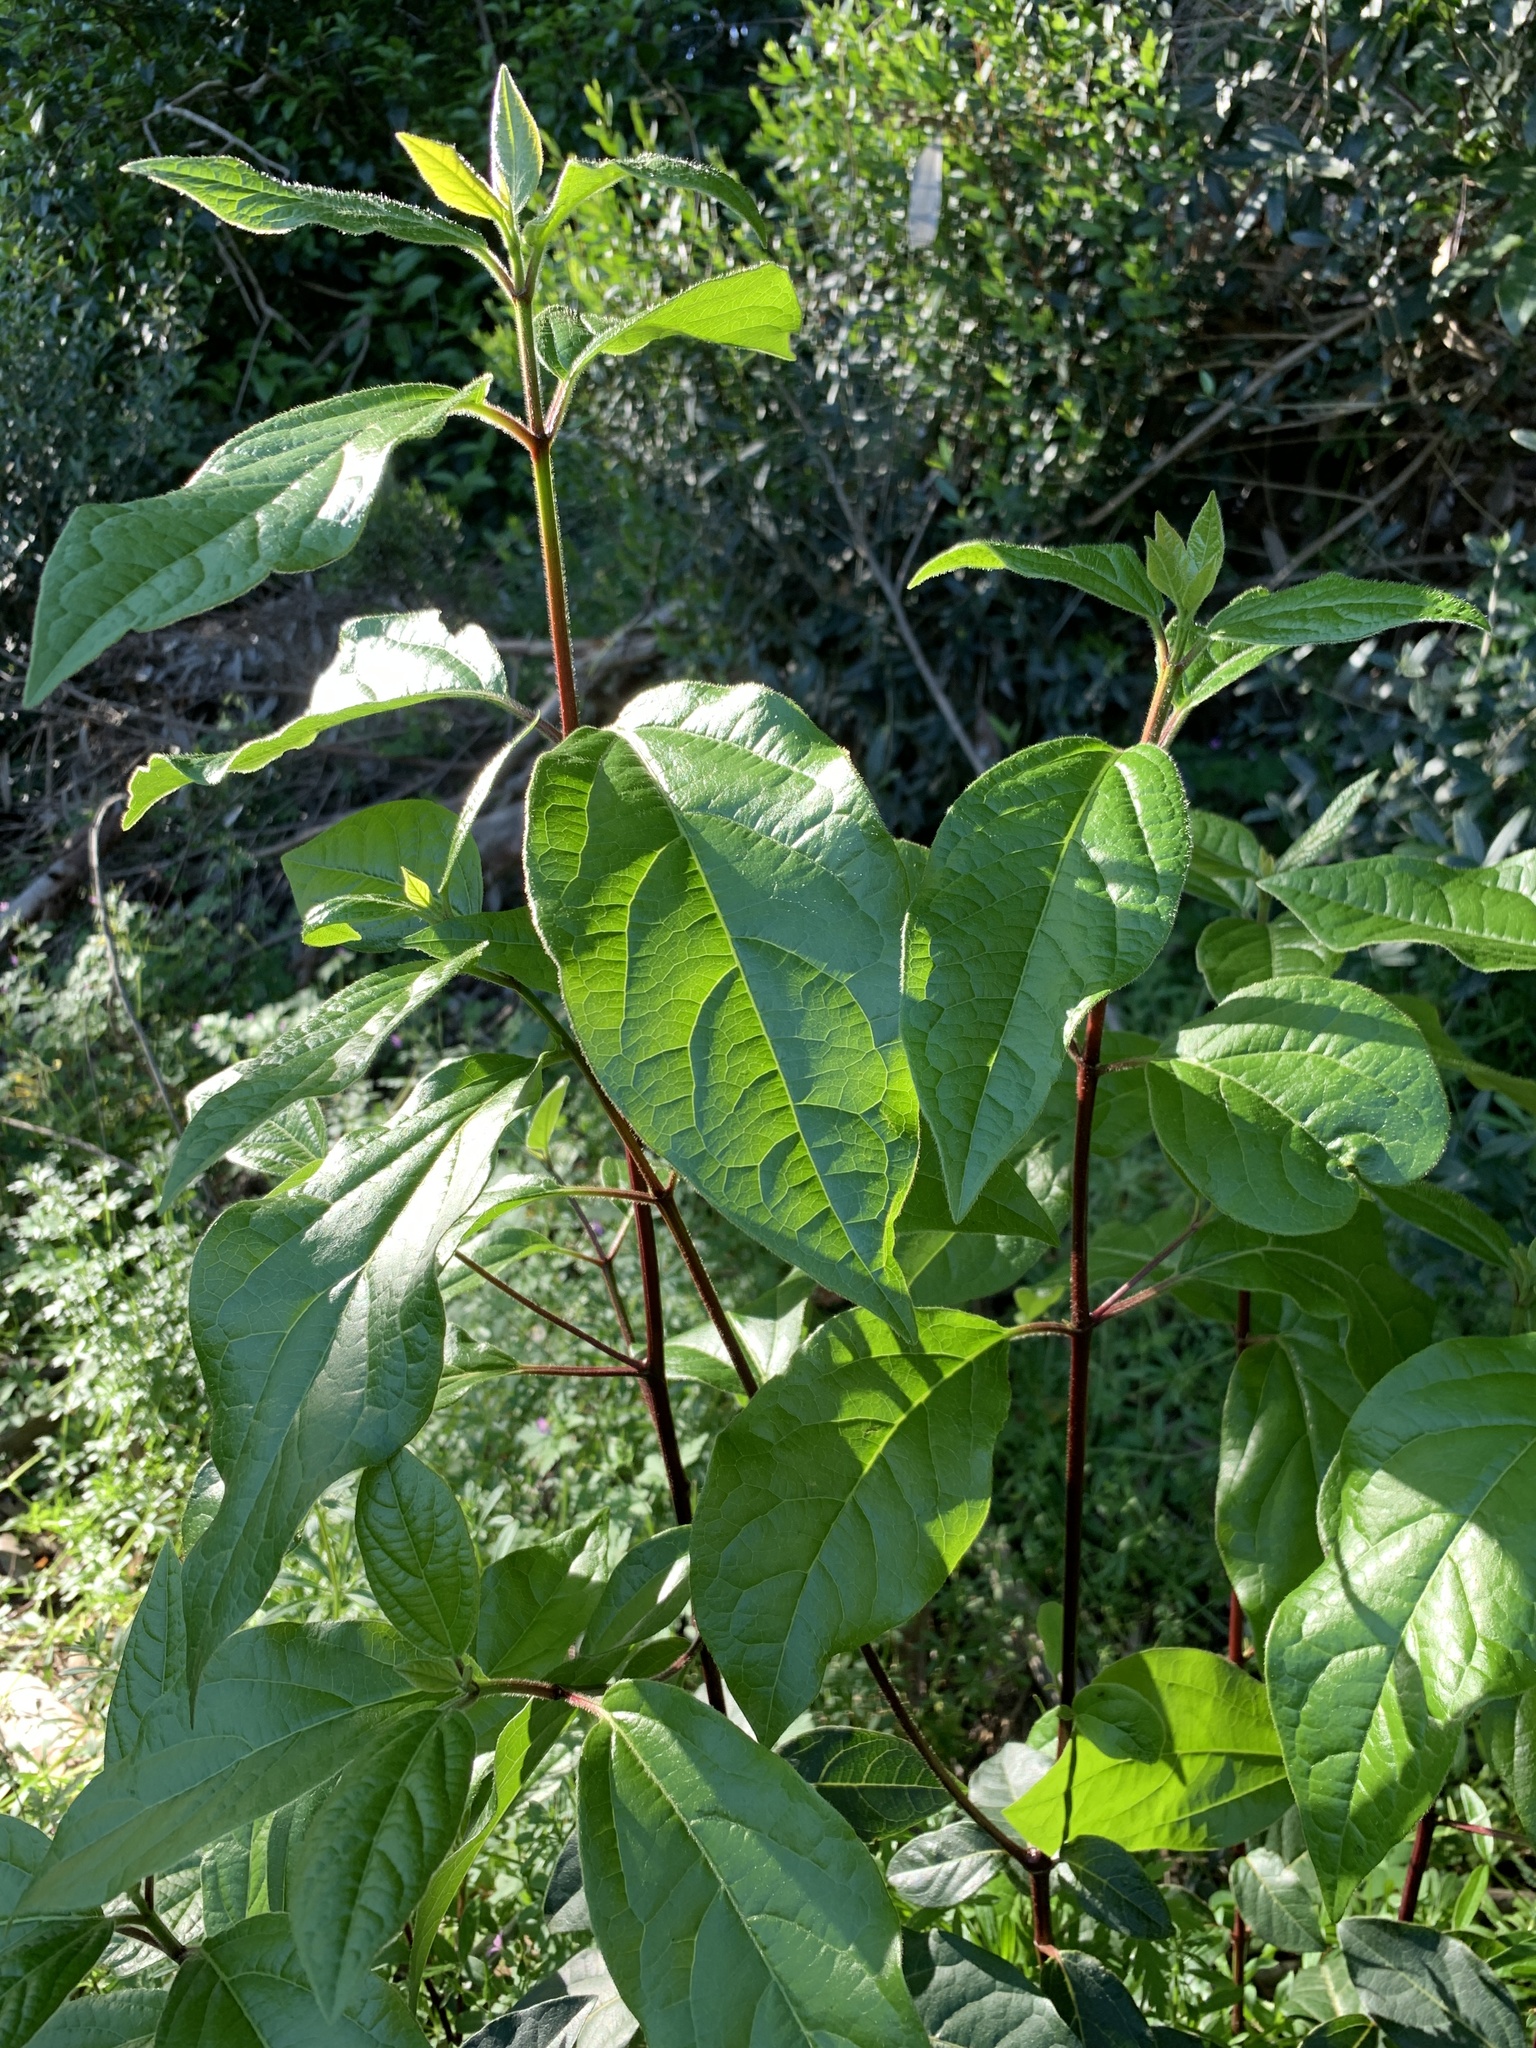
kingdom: Plantae
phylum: Tracheophyta
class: Magnoliopsida
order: Dipsacales
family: Viburnaceae
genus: Viburnum
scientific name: Viburnum tinus
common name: Laurustinus
